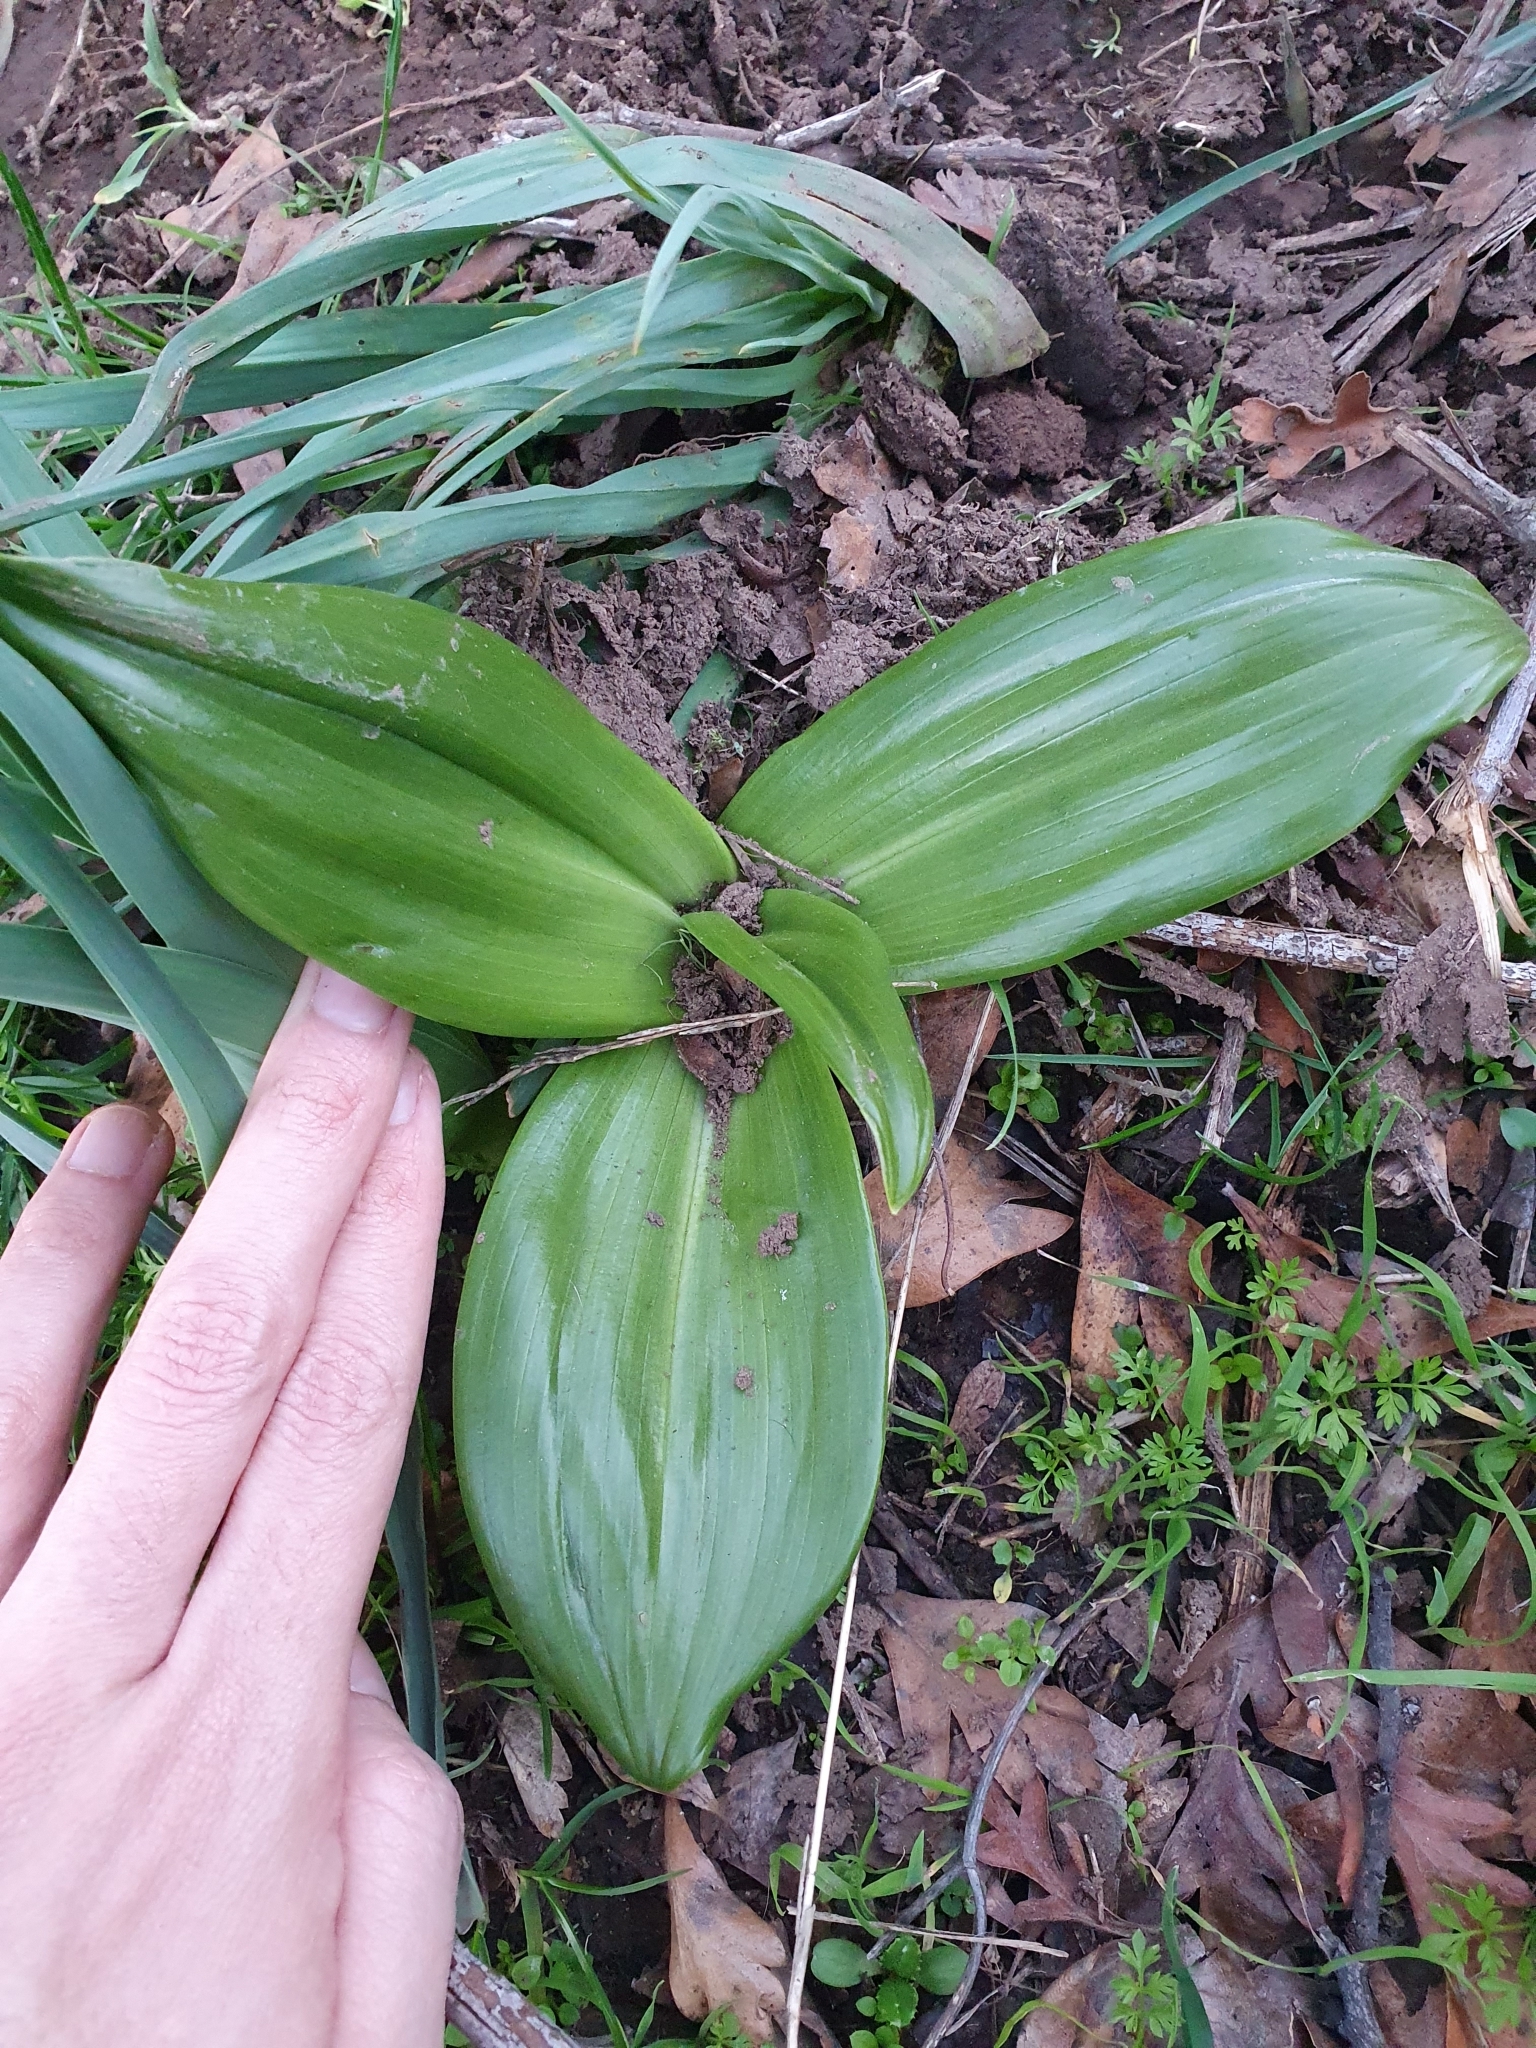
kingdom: Plantae
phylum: Tracheophyta
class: Liliopsida
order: Asparagales
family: Orchidaceae
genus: Himantoglossum
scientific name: Himantoglossum robertianum
